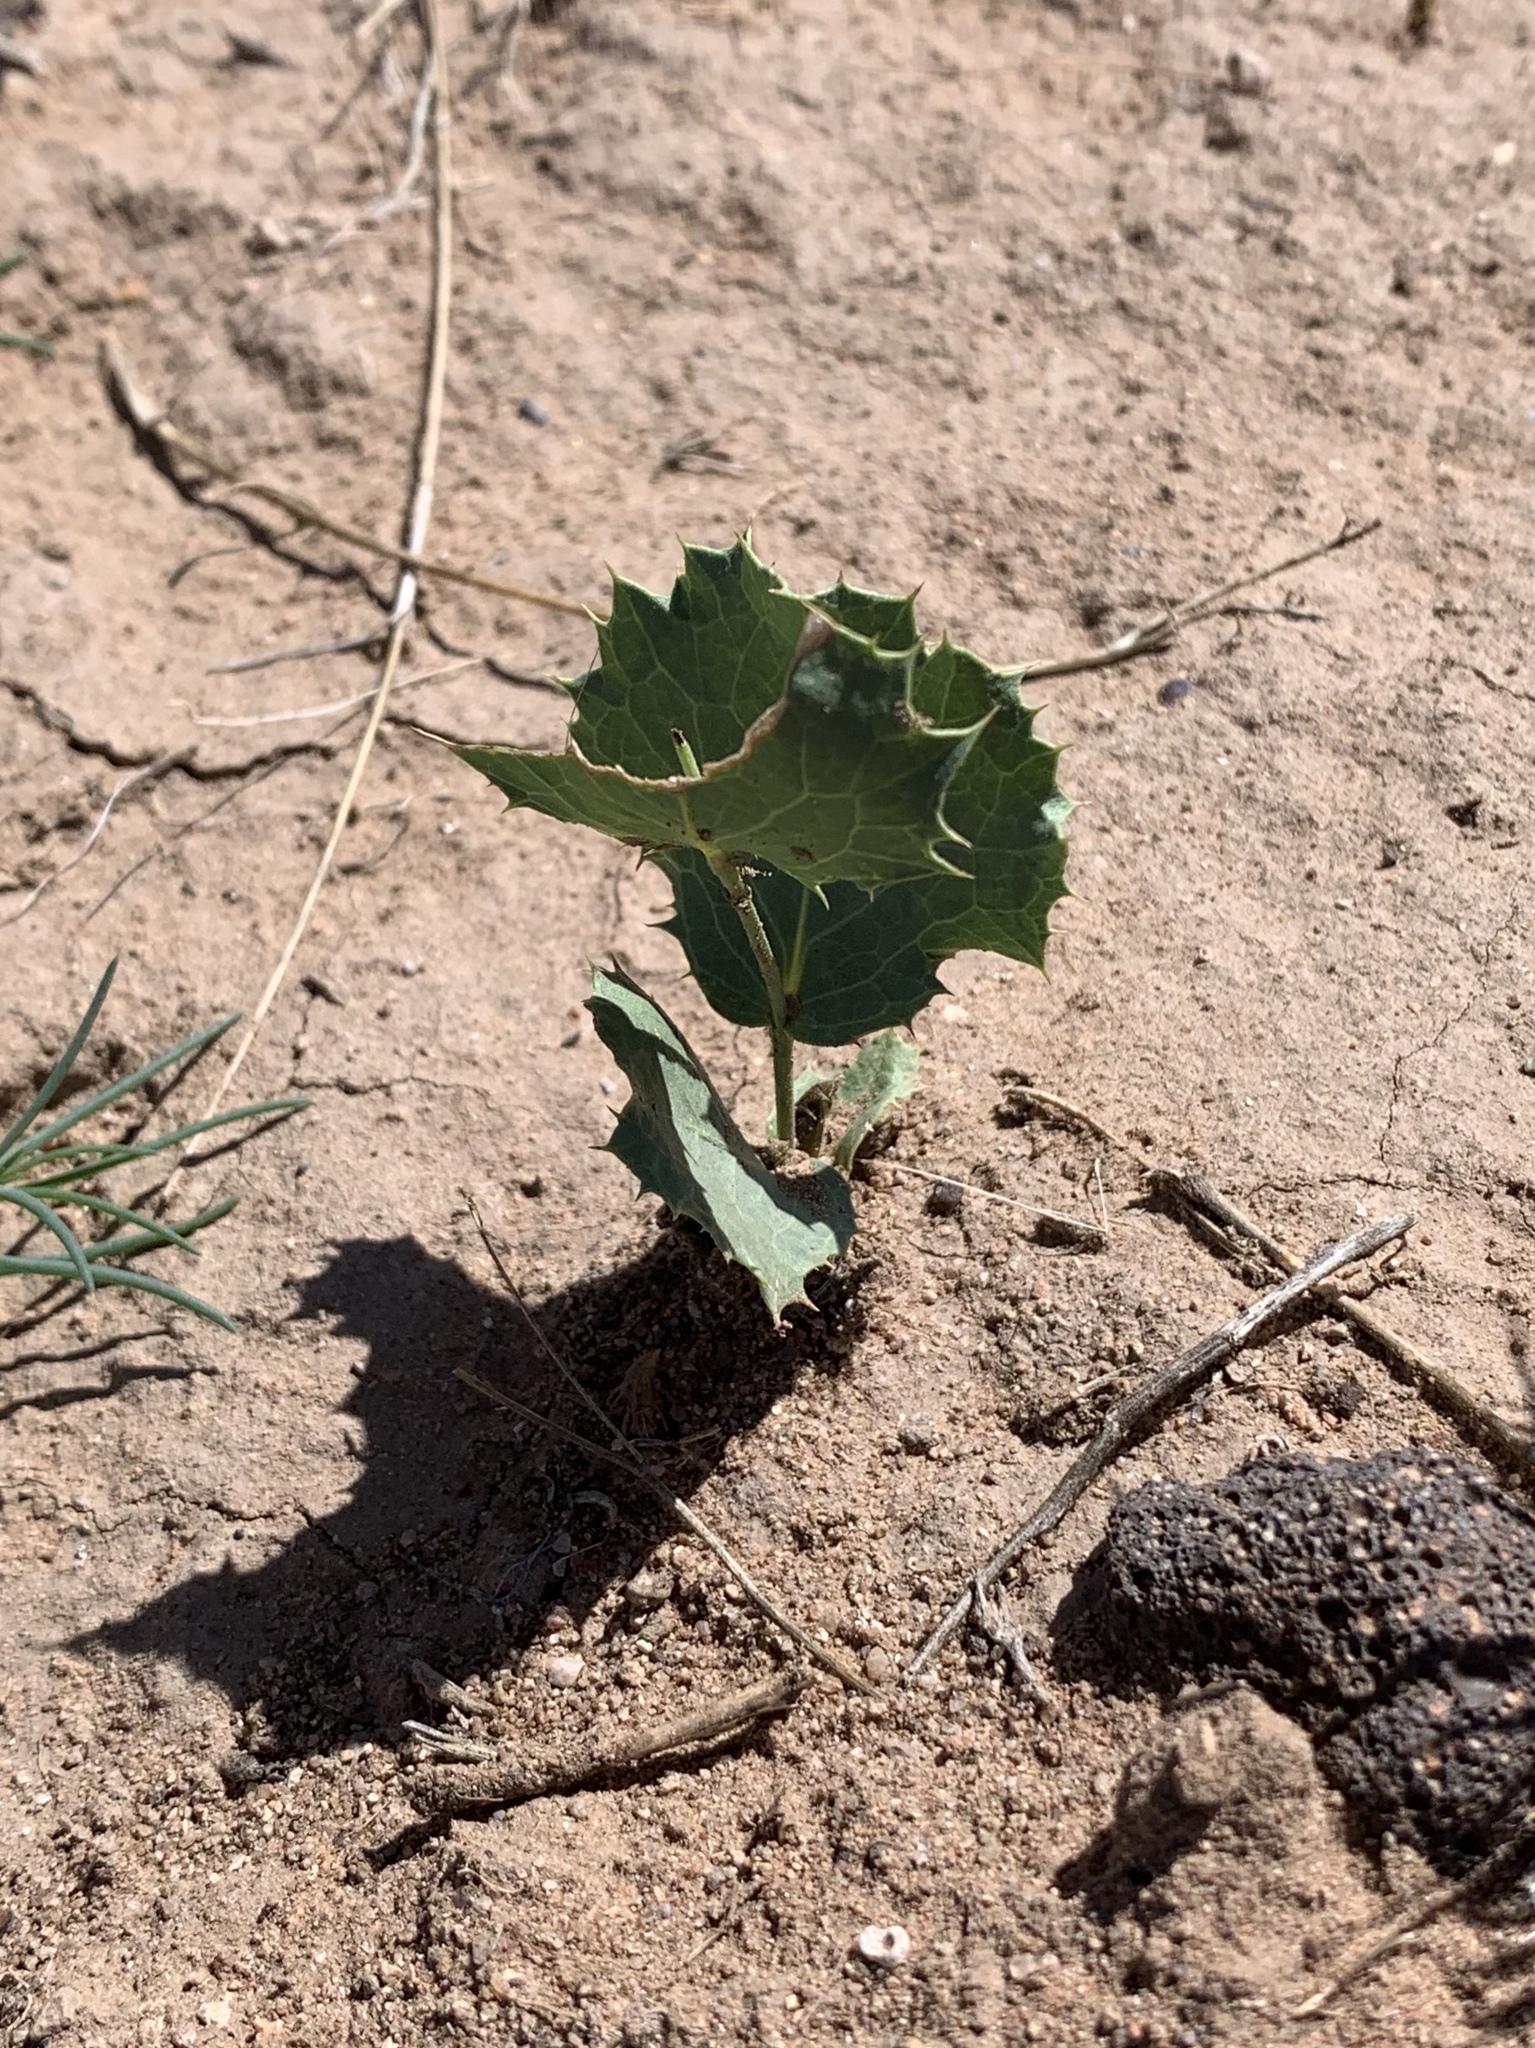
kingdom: Plantae
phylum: Tracheophyta
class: Magnoliopsida
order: Asterales
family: Asteraceae
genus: Acourtia
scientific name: Acourtia nana
